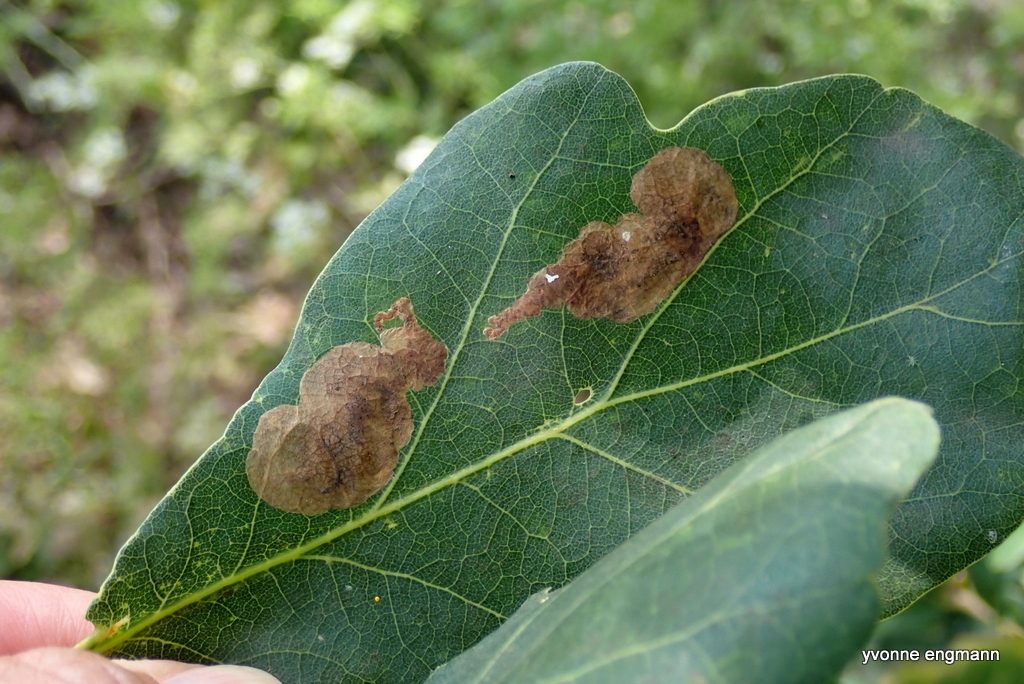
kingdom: Animalia
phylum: Arthropoda
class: Insecta
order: Hymenoptera
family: Tenthredinidae
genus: Profenusa
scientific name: Profenusa pygmaea
